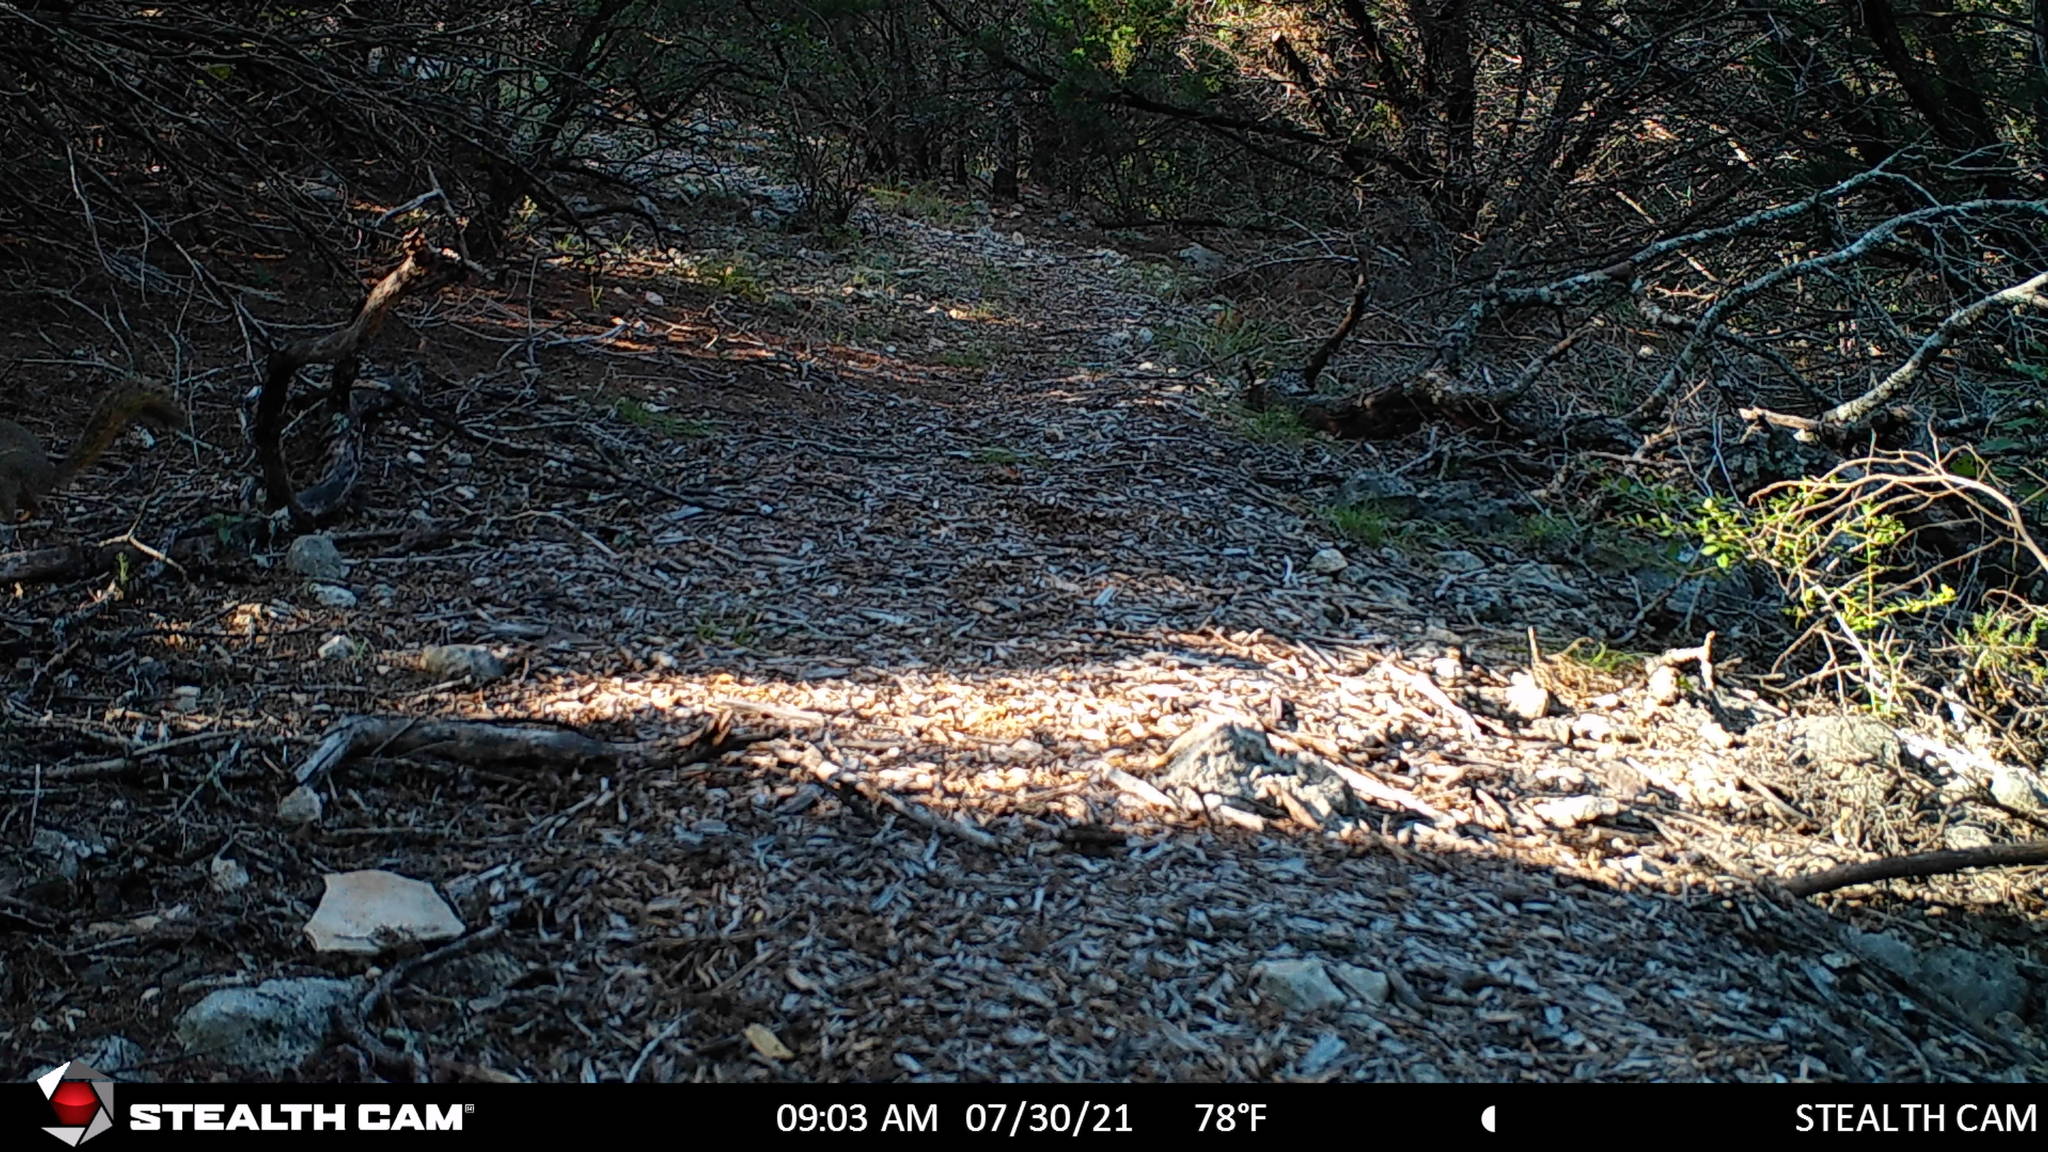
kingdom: Animalia
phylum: Chordata
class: Mammalia
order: Rodentia
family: Sciuridae
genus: Sciurus
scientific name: Sciurus niger
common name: Fox squirrel
